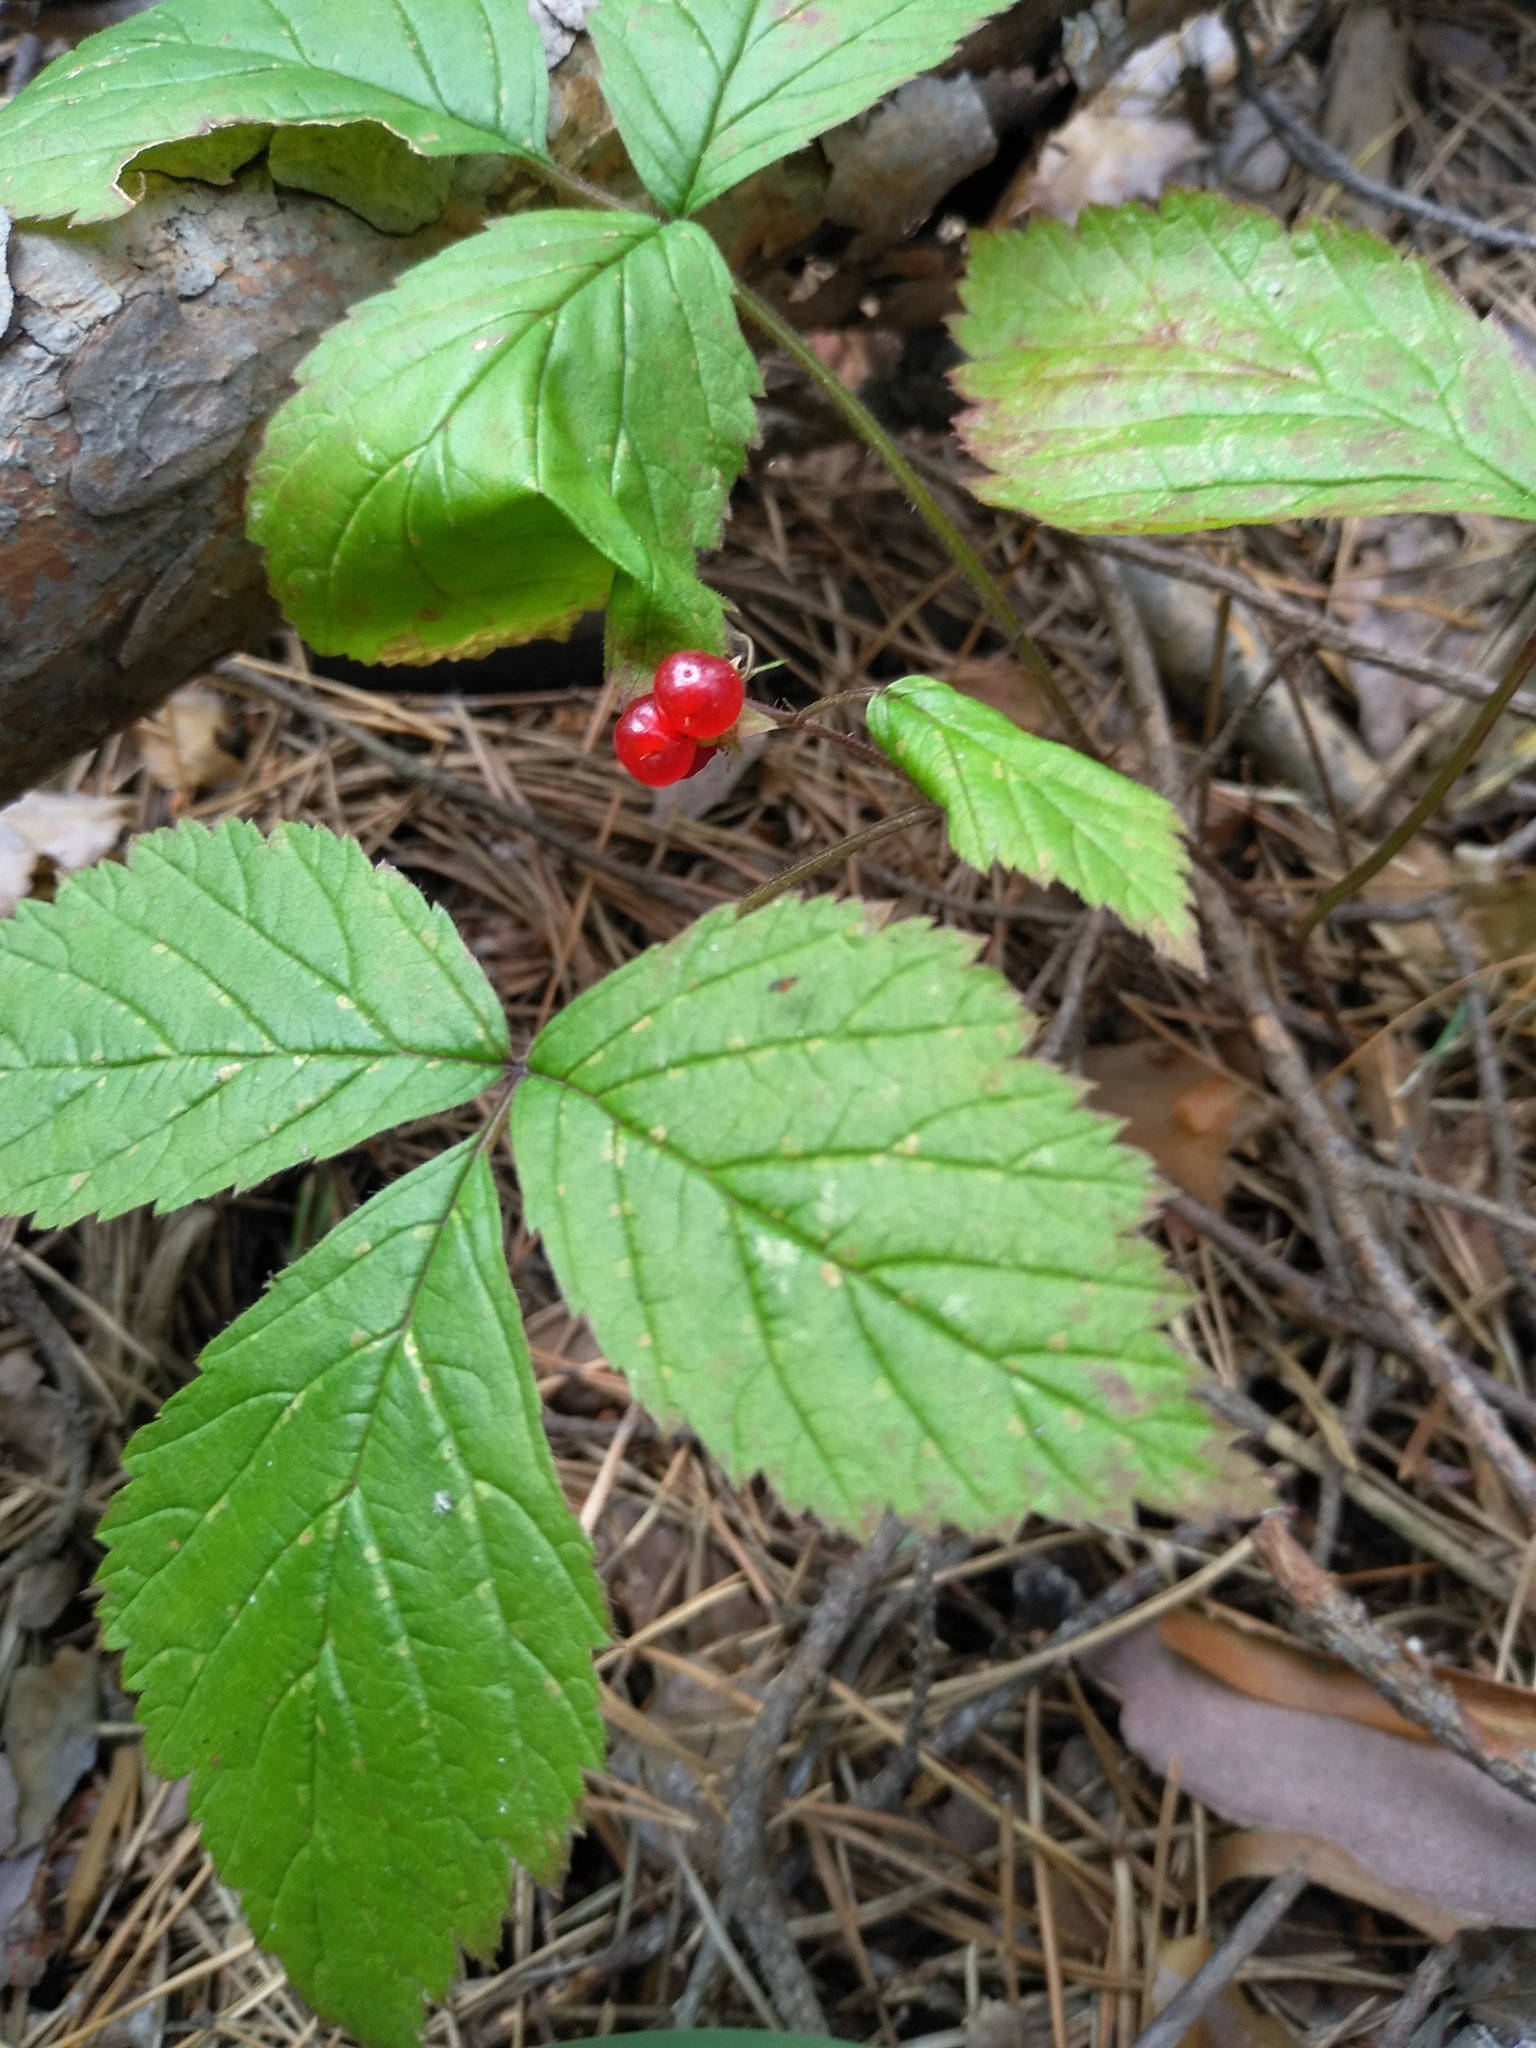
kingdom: Plantae
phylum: Tracheophyta
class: Magnoliopsida
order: Rosales
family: Rosaceae
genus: Rubus
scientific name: Rubus saxatilis
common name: Stone bramble
